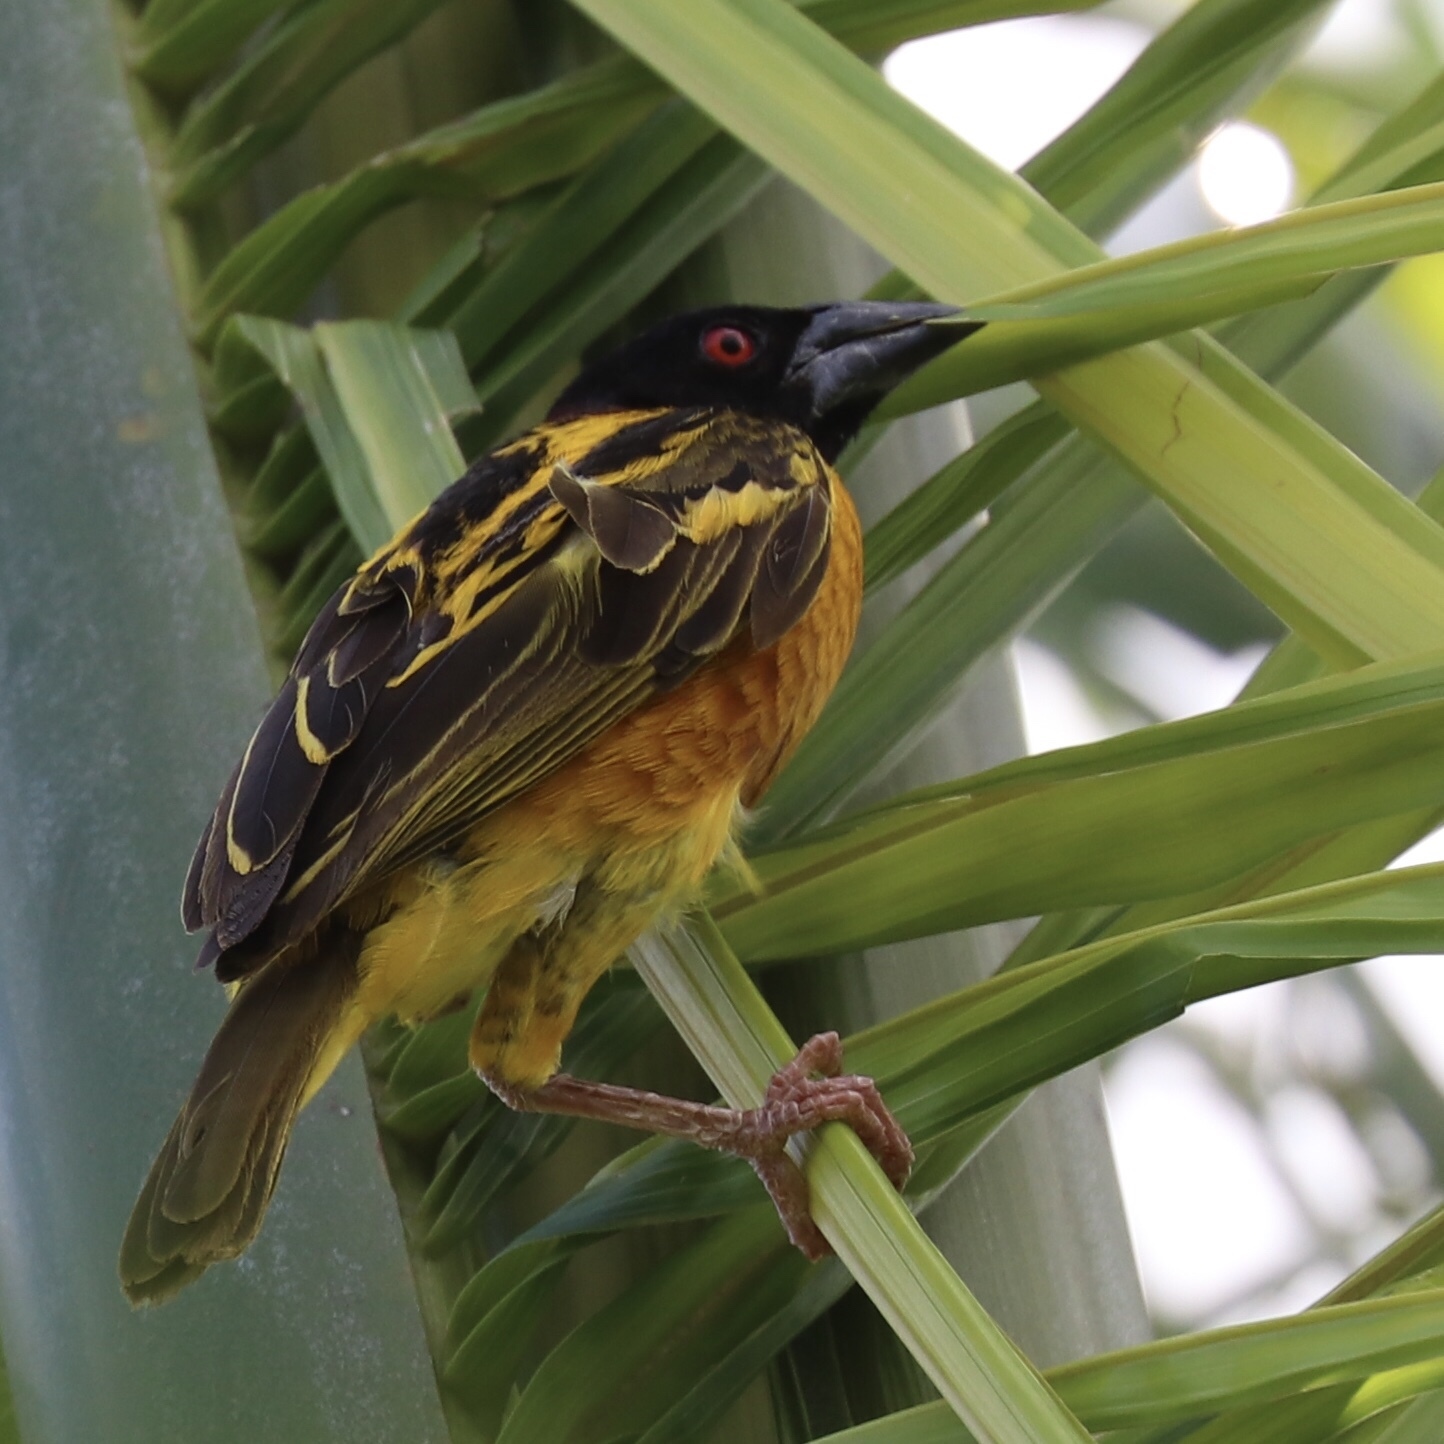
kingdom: Animalia
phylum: Chordata
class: Aves
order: Passeriformes
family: Ploceidae
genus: Ploceus
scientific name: Ploceus cucullatus
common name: Village weaver
